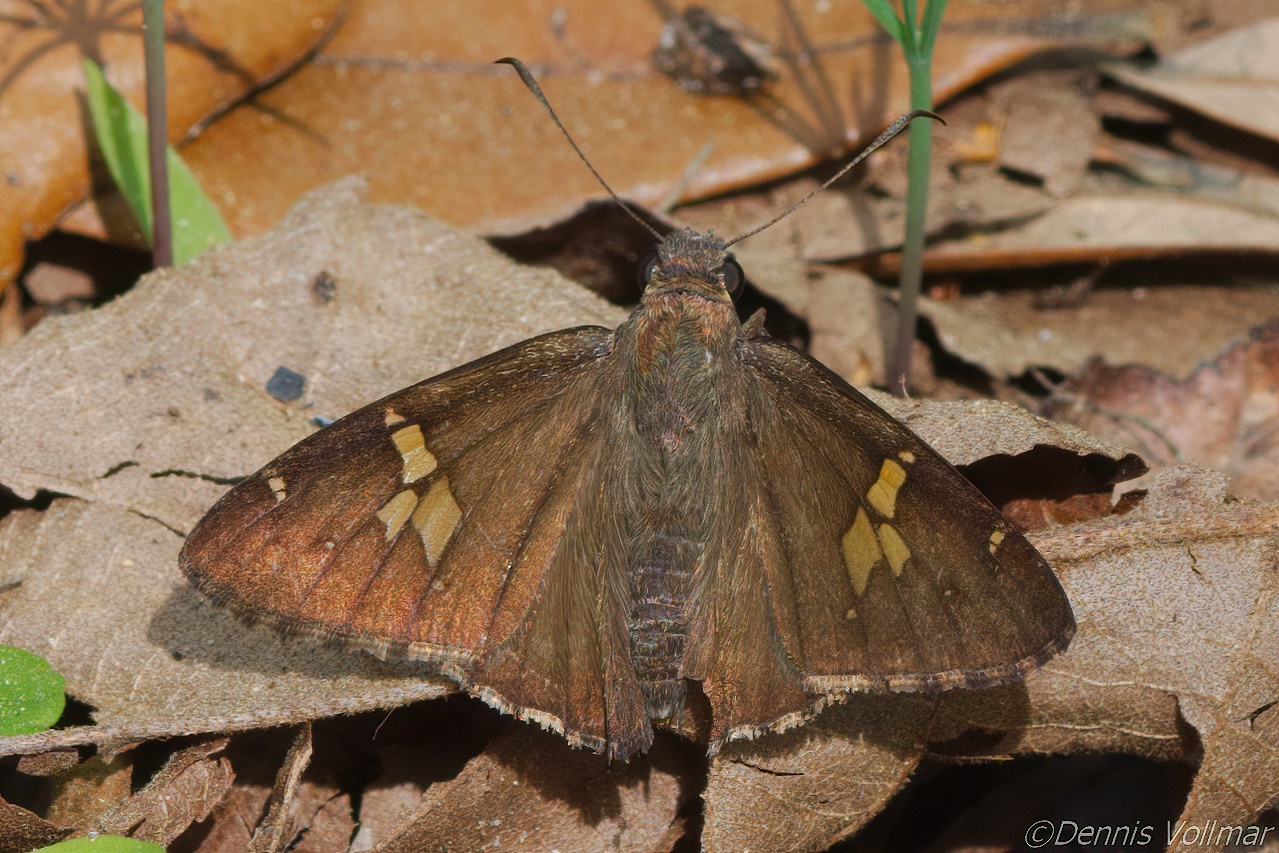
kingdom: Animalia
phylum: Arthropoda
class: Insecta
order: Lepidoptera
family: Hesperiidae
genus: Thorybes
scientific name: Thorybes lyciades
